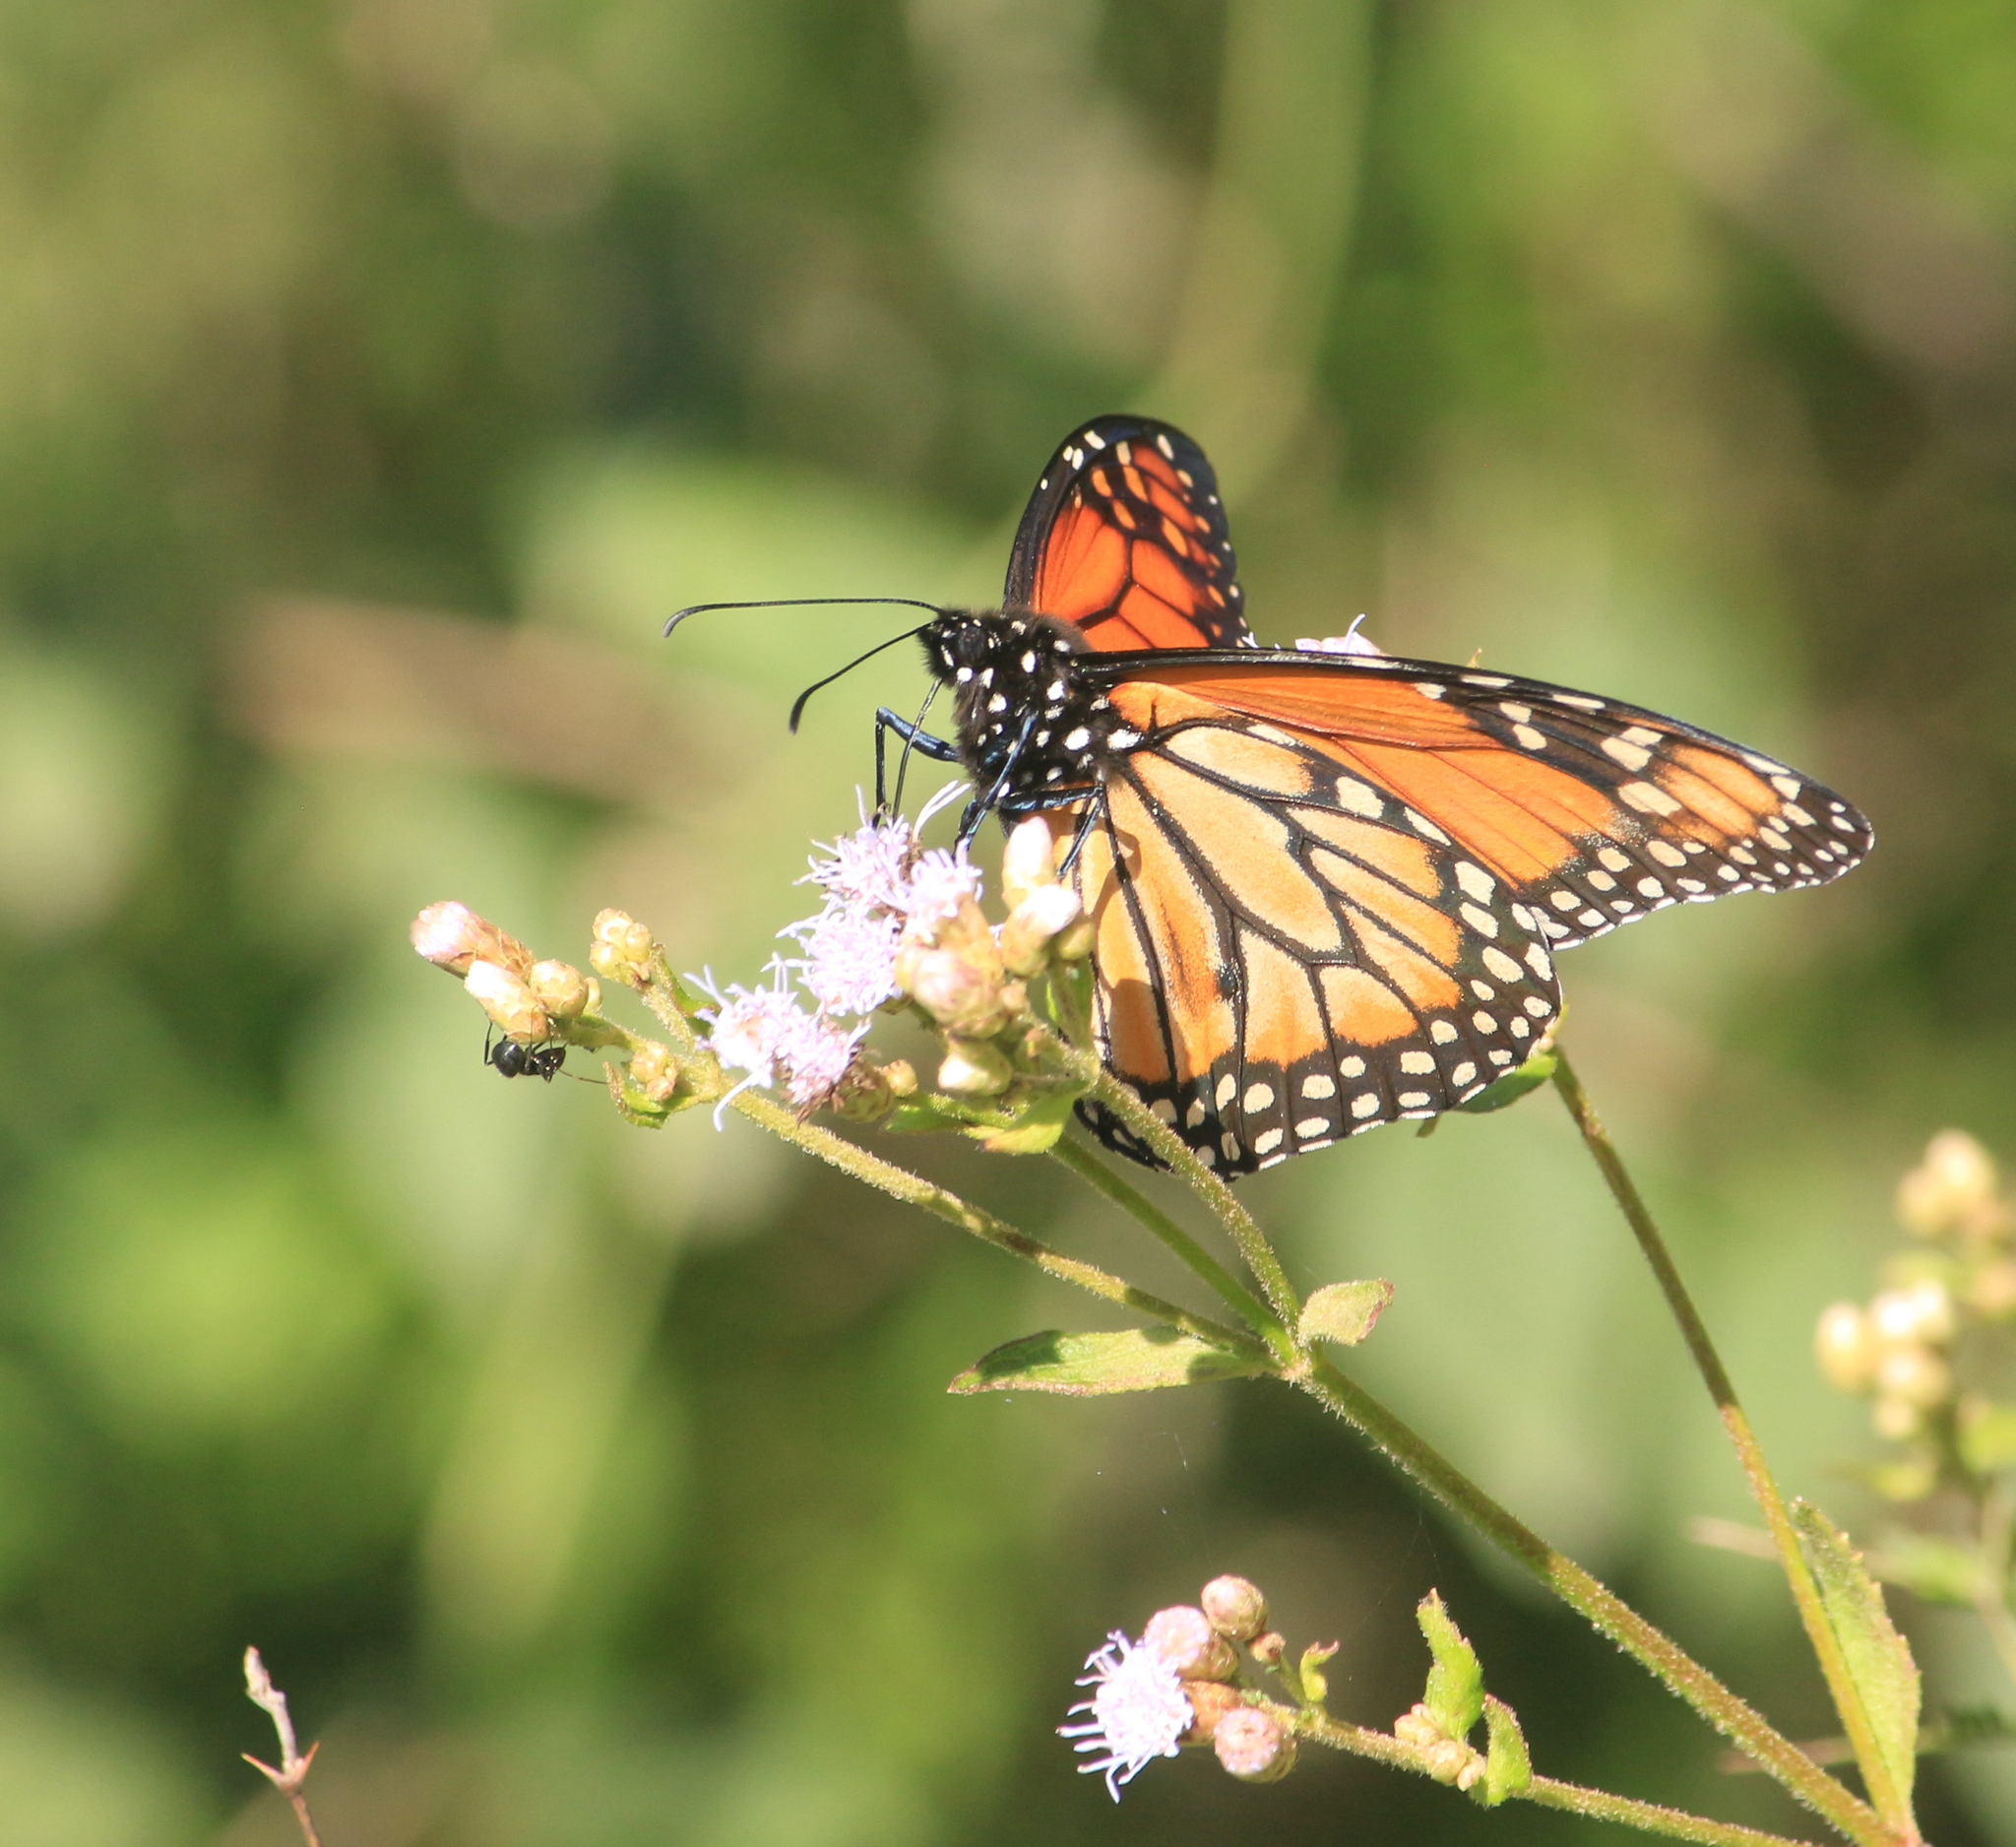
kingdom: Animalia
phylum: Arthropoda
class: Insecta
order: Lepidoptera
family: Nymphalidae
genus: Danaus
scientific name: Danaus erippus
